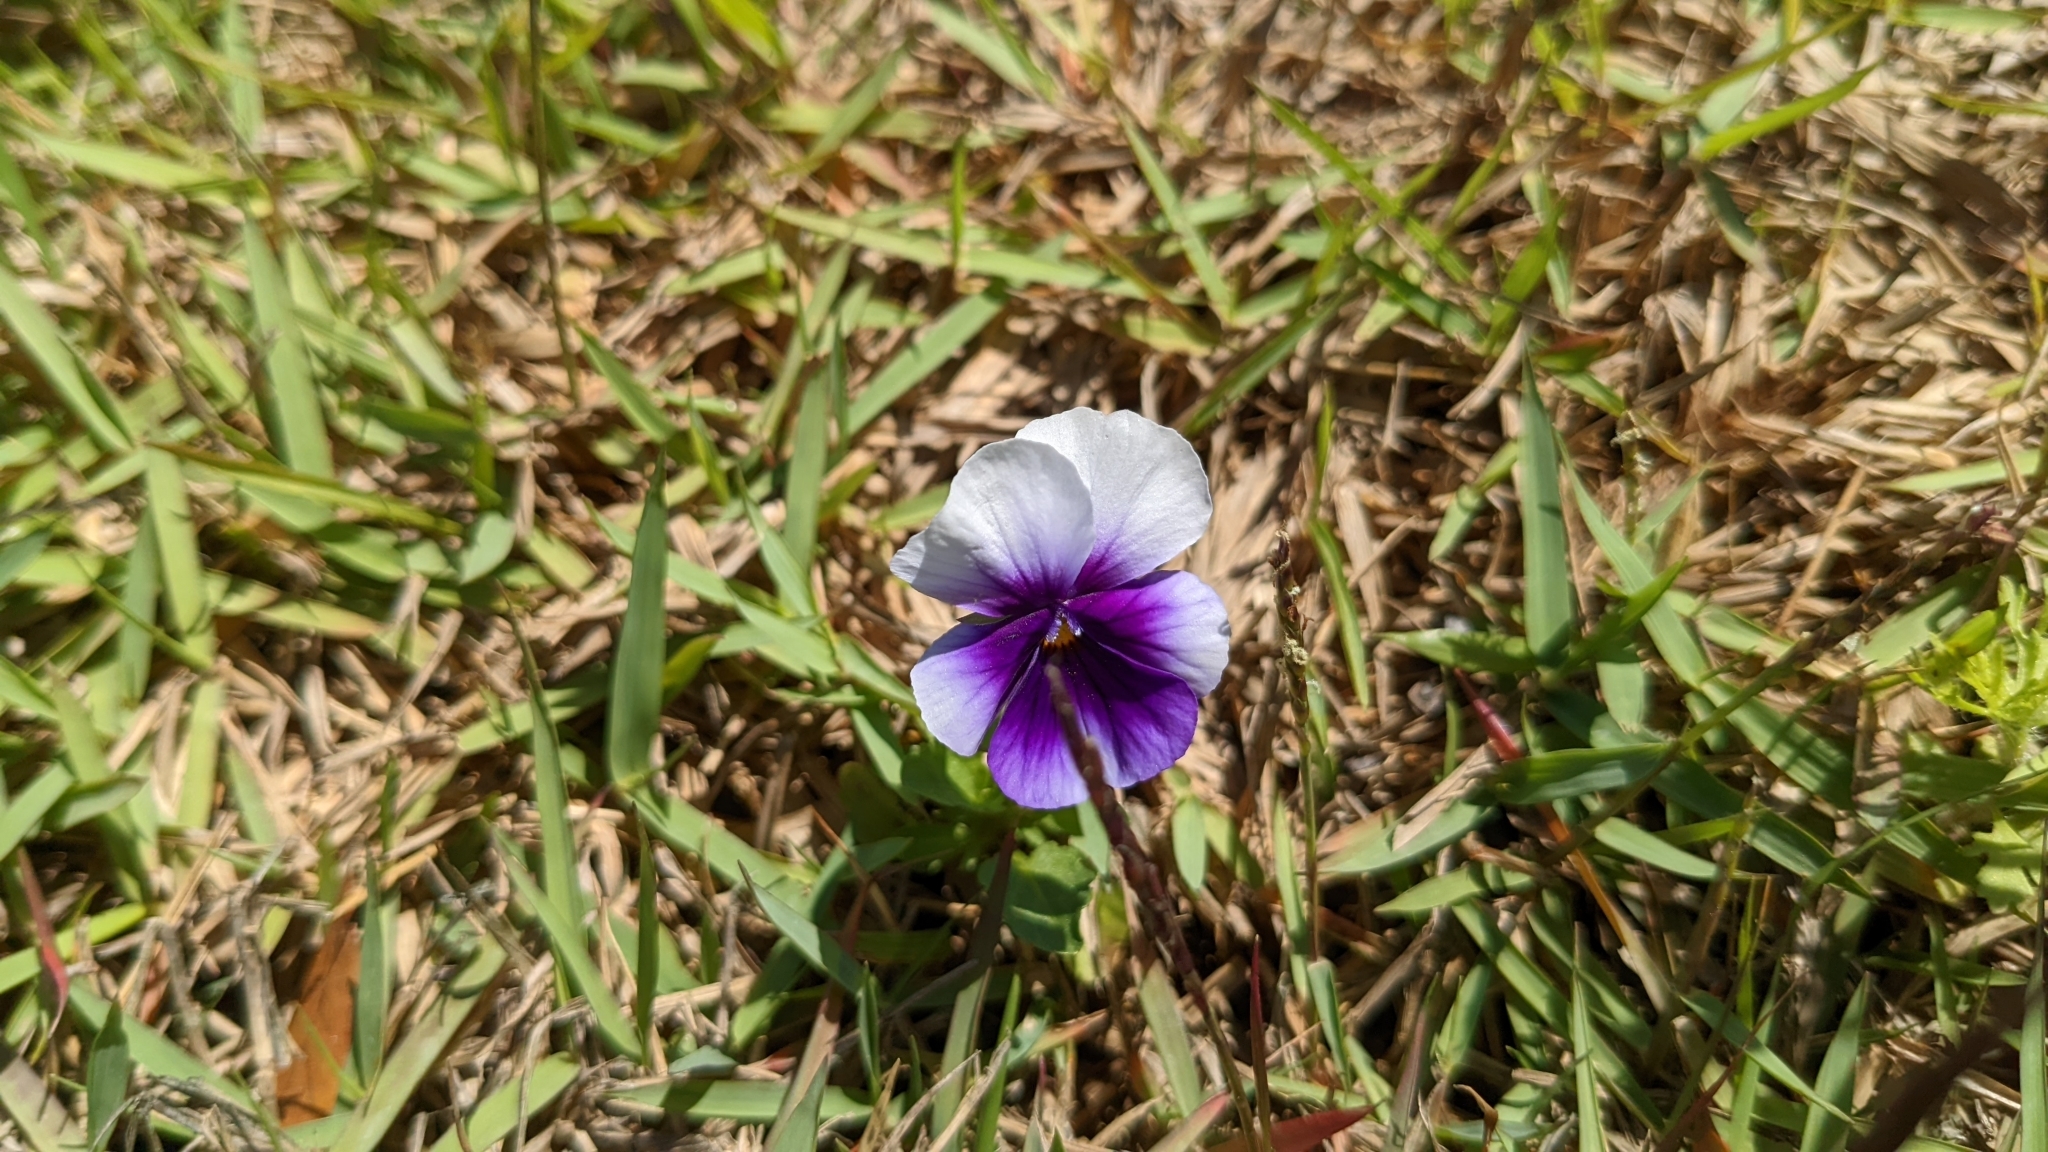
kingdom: Plantae
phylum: Tracheophyta
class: Magnoliopsida
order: Malpighiales
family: Violaceae
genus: Viola
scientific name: Viola wittrockiana
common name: Garden pansy
